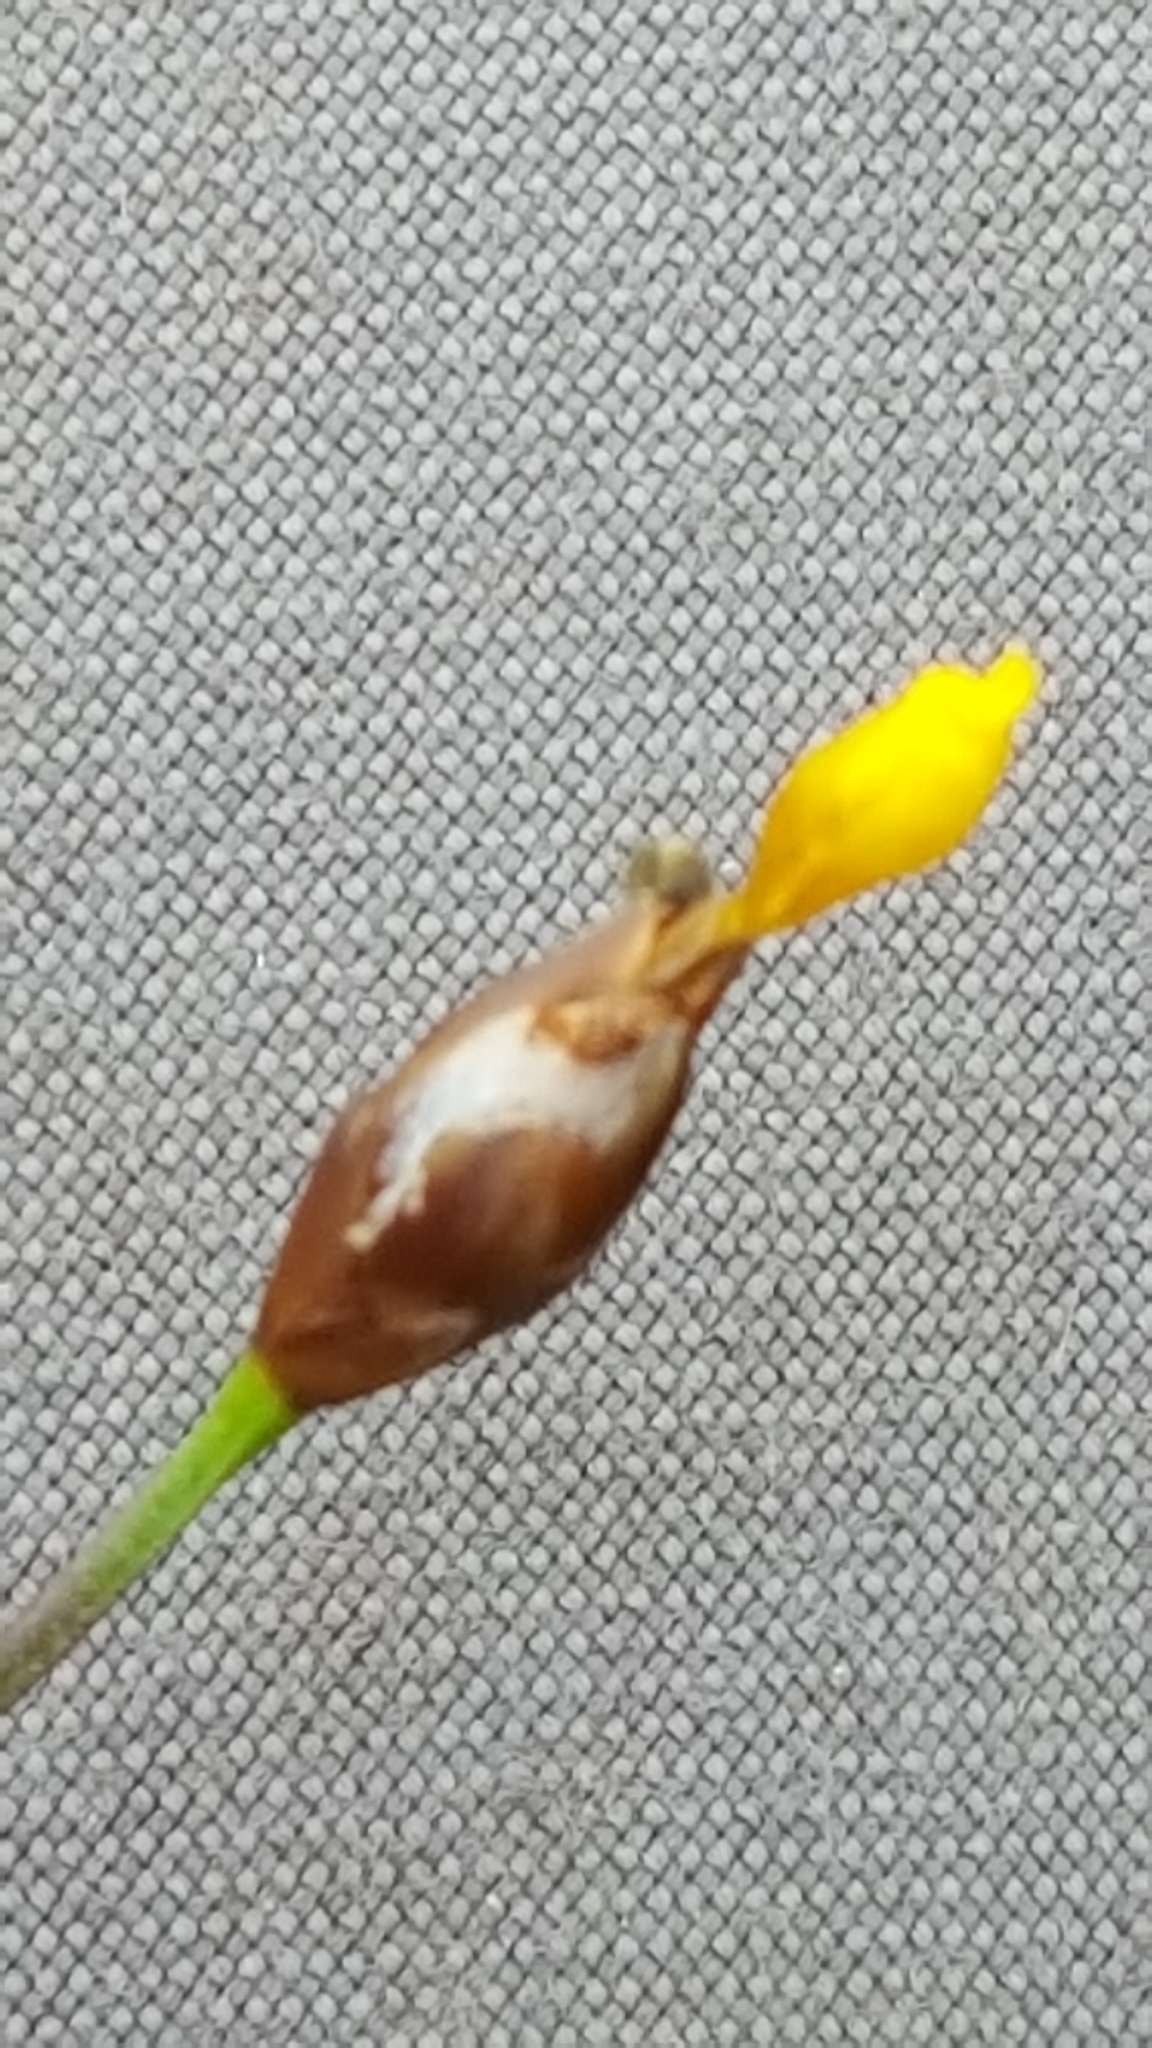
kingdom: Plantae
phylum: Tracheophyta
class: Liliopsida
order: Poales
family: Xyridaceae
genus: Xyris
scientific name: Xyris montana
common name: Northern yellow-eyed-grass
